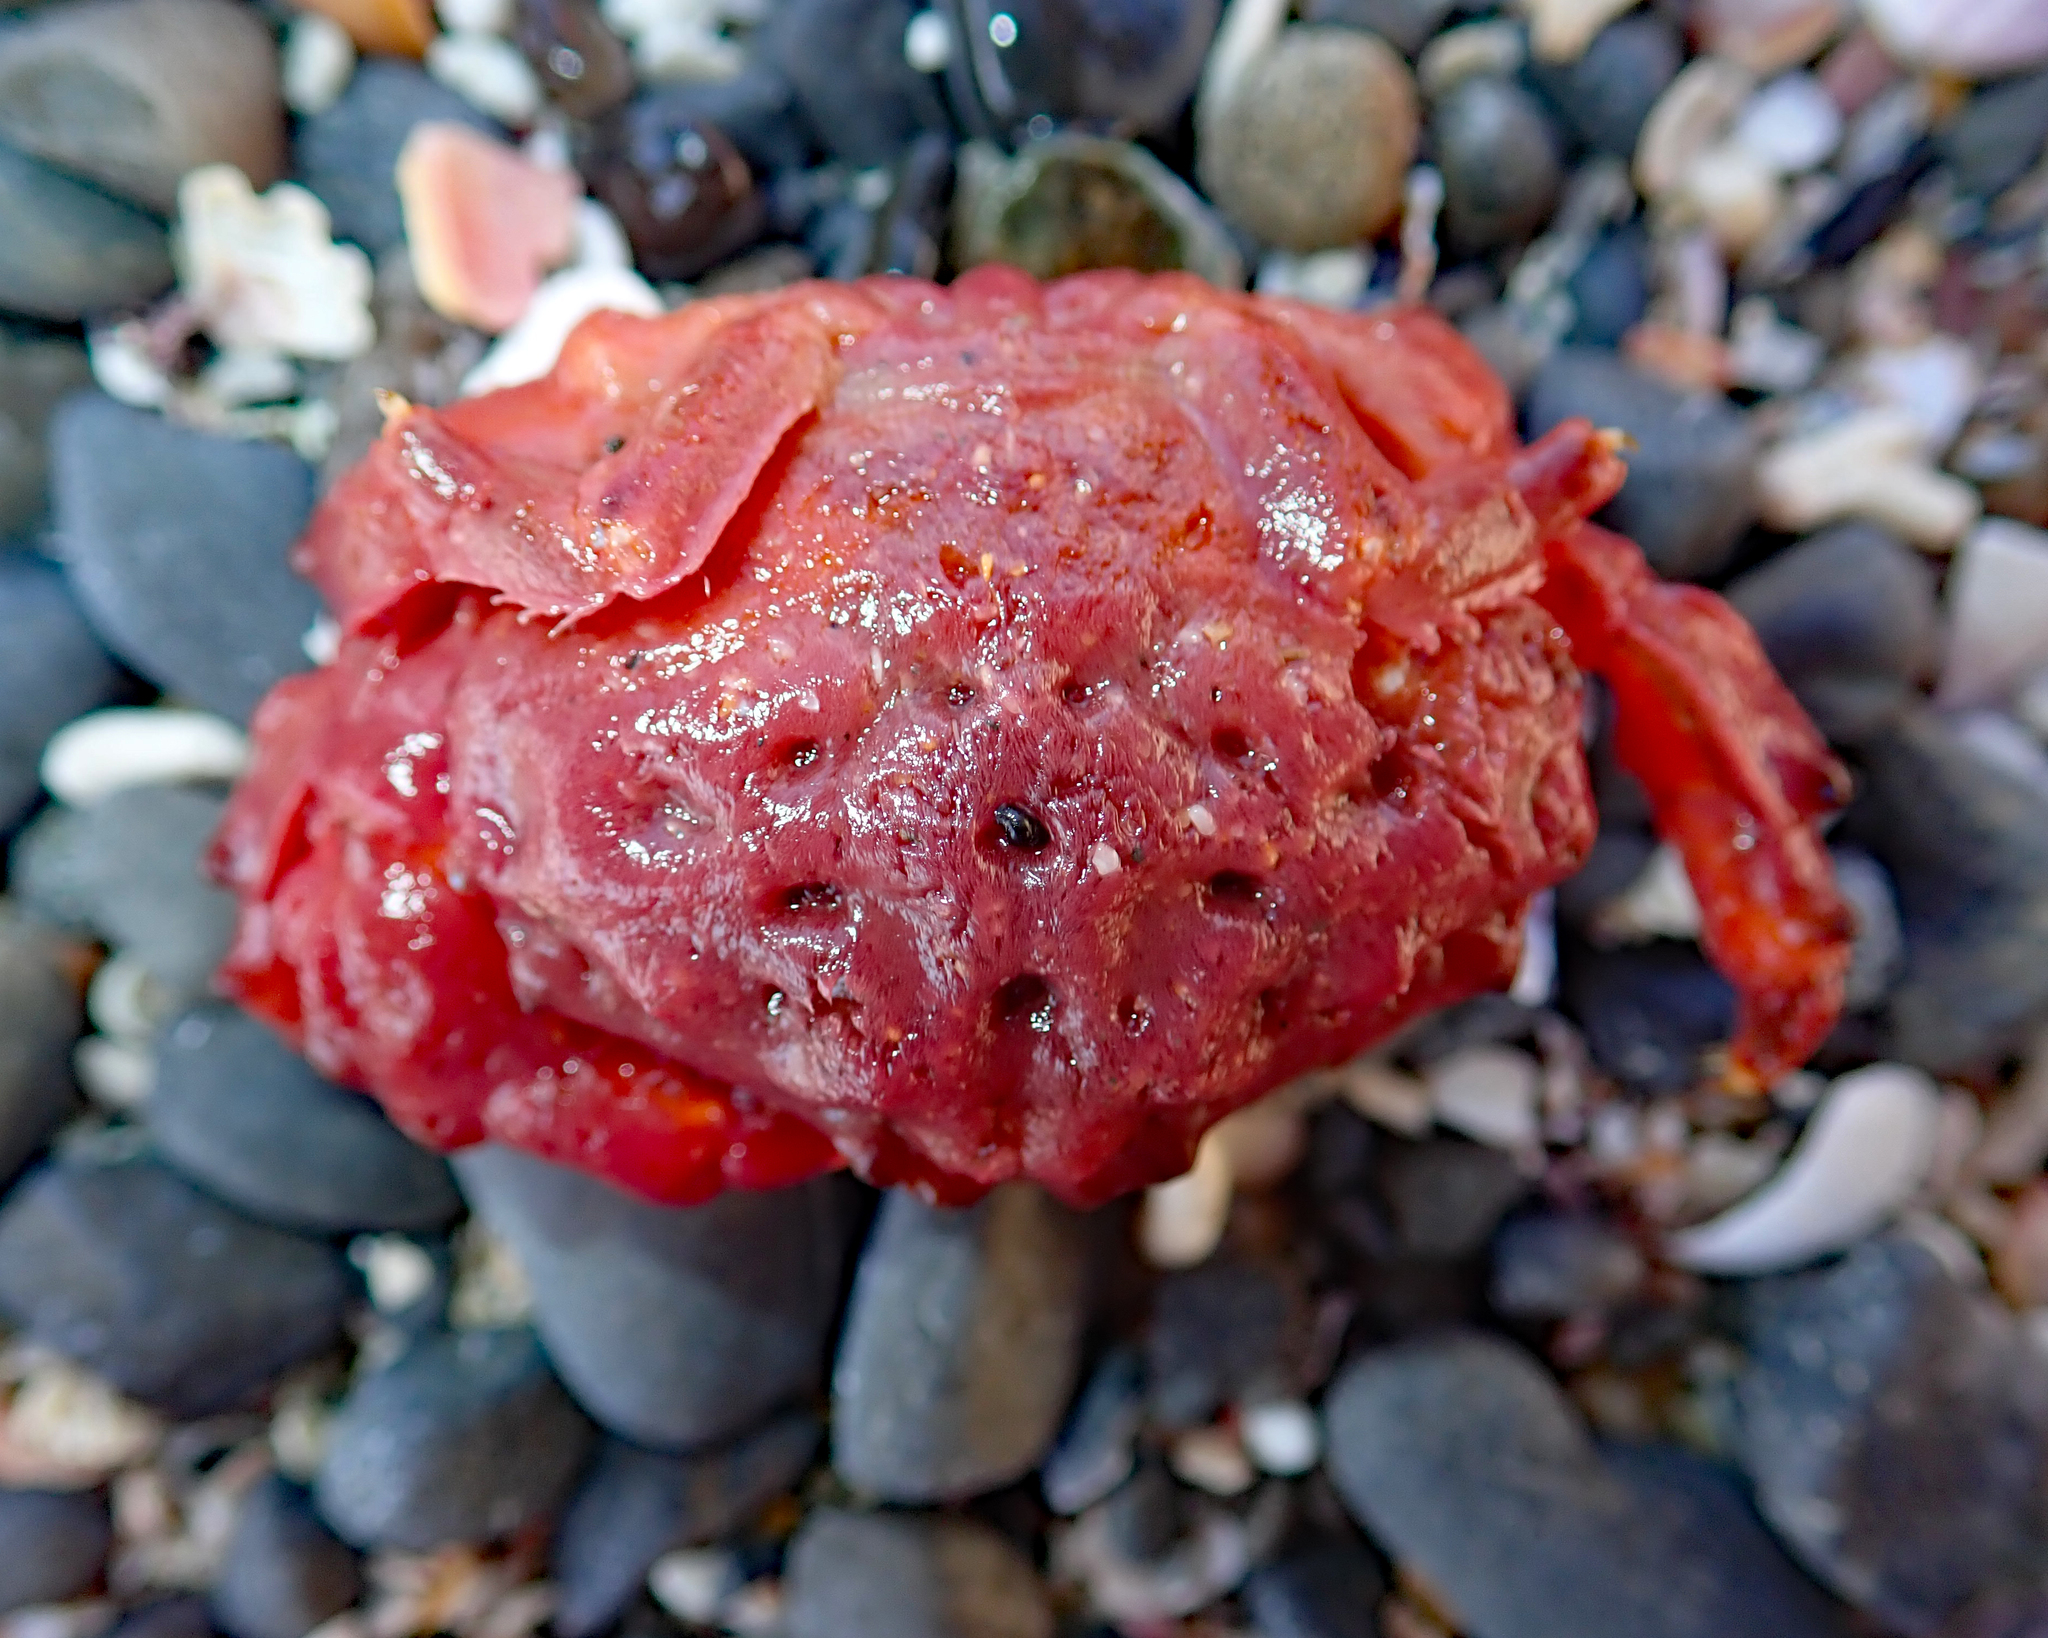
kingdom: Animalia
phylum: Arthropoda
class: Malacostraca
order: Decapoda
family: Dromiidae
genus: Metadromia
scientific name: Metadromia wilsoni
